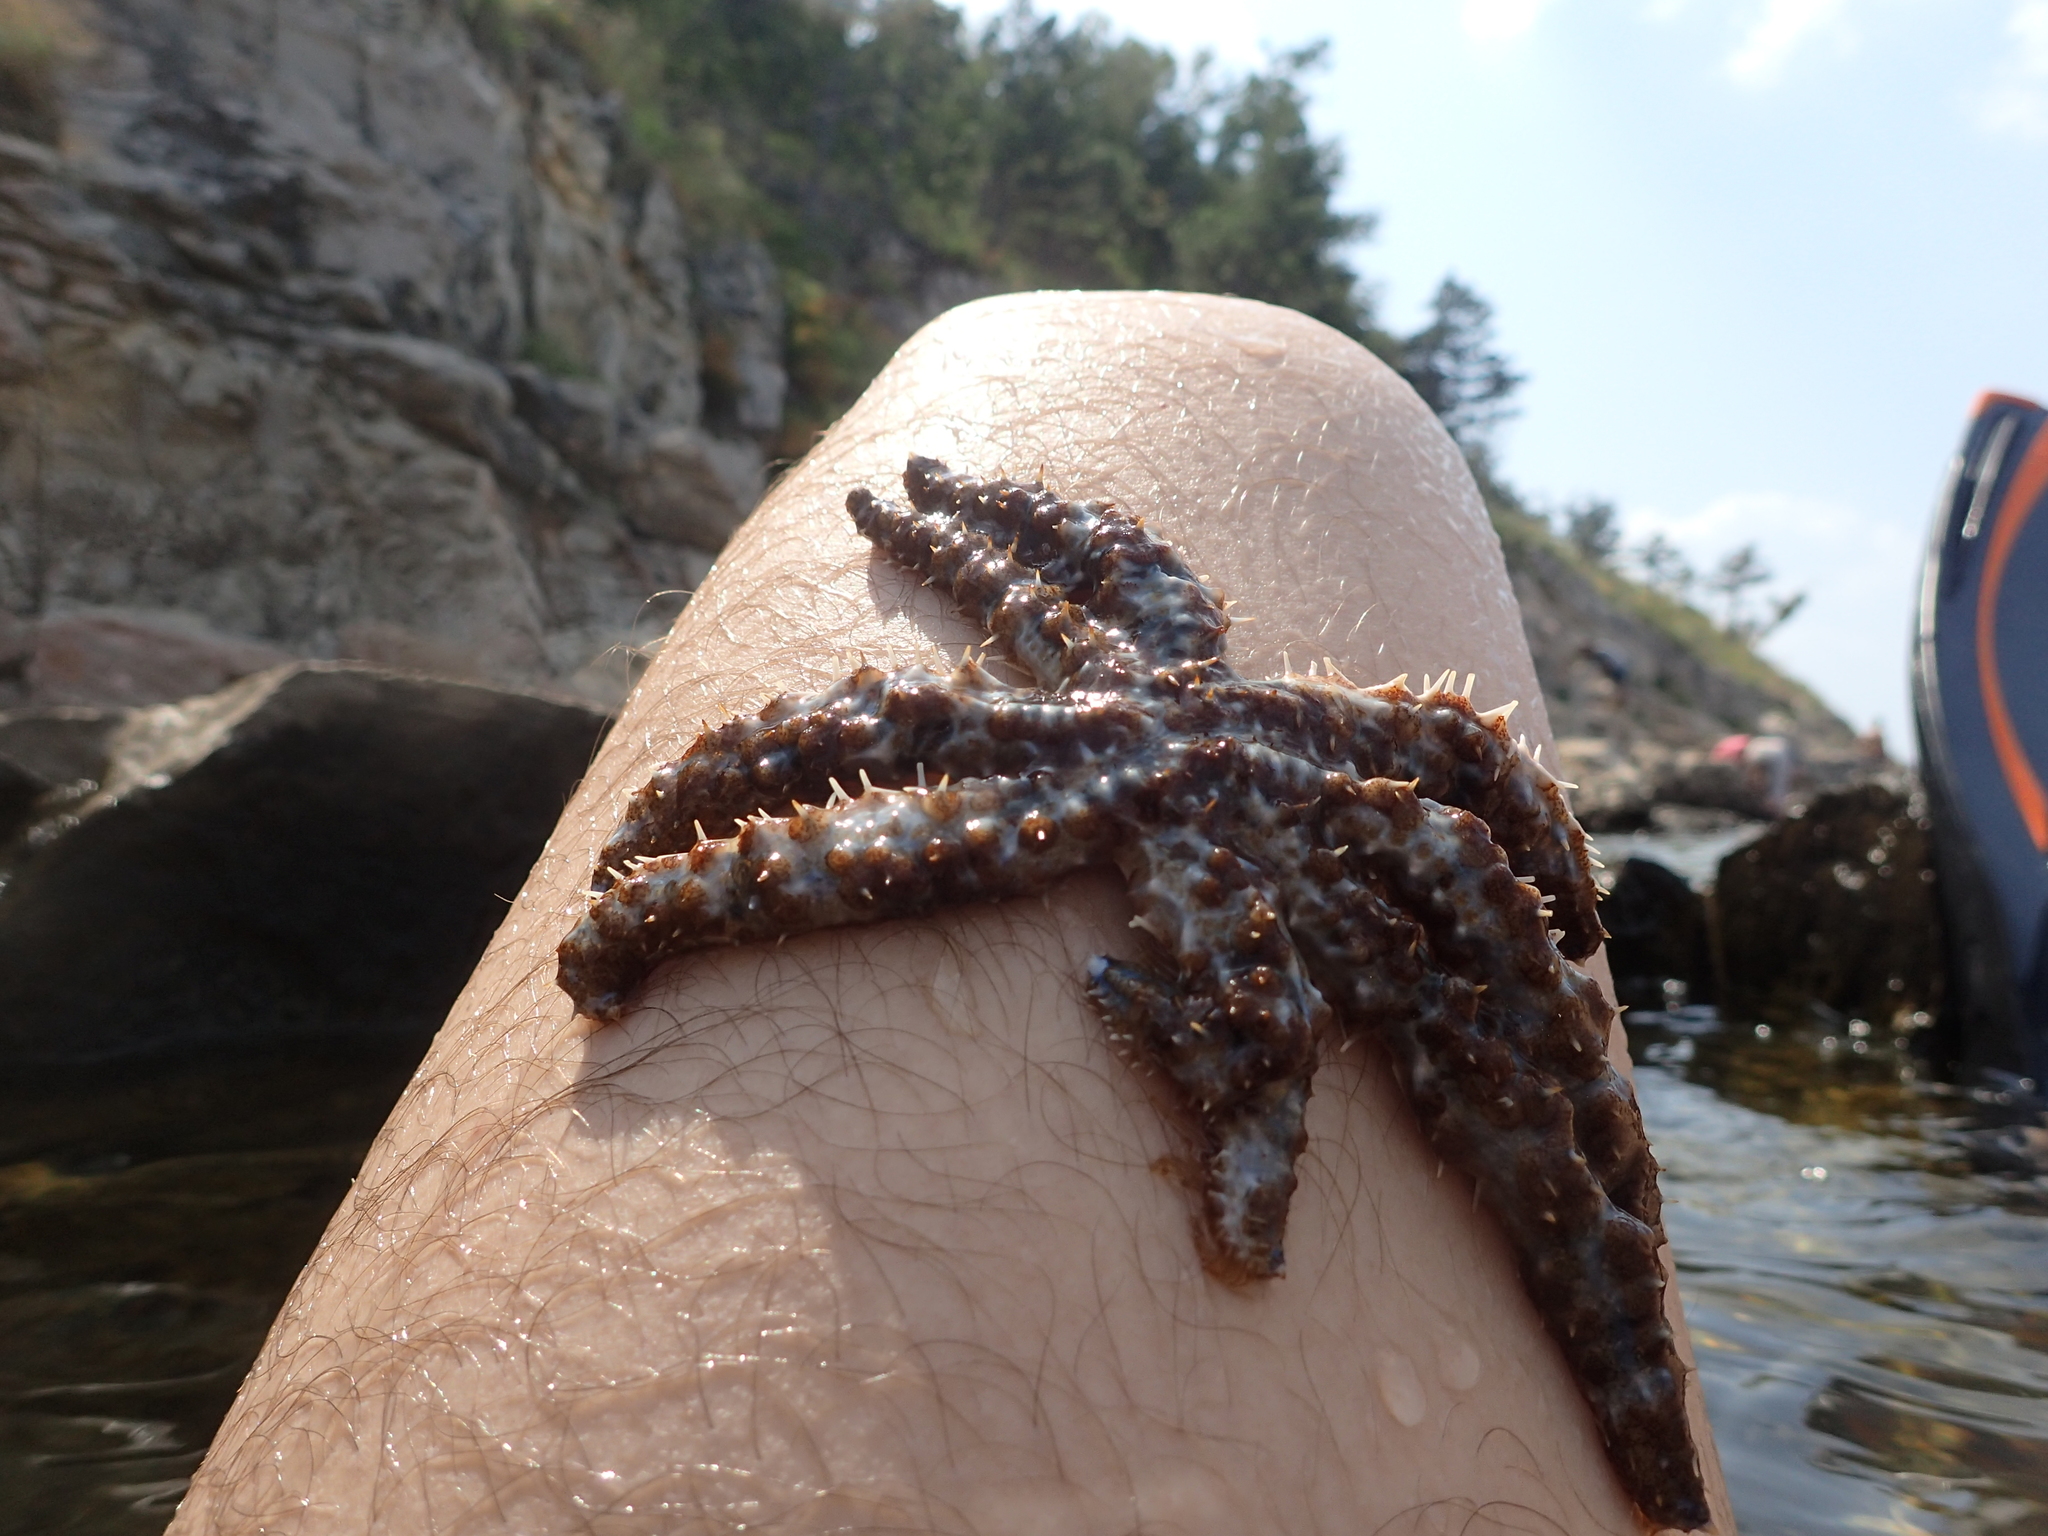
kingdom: Animalia
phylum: Echinodermata
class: Asteroidea
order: Forcipulatida
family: Asteriidae
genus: Coscinasterias
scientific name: Coscinasterias tenuispina
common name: Blue spiny starfish
